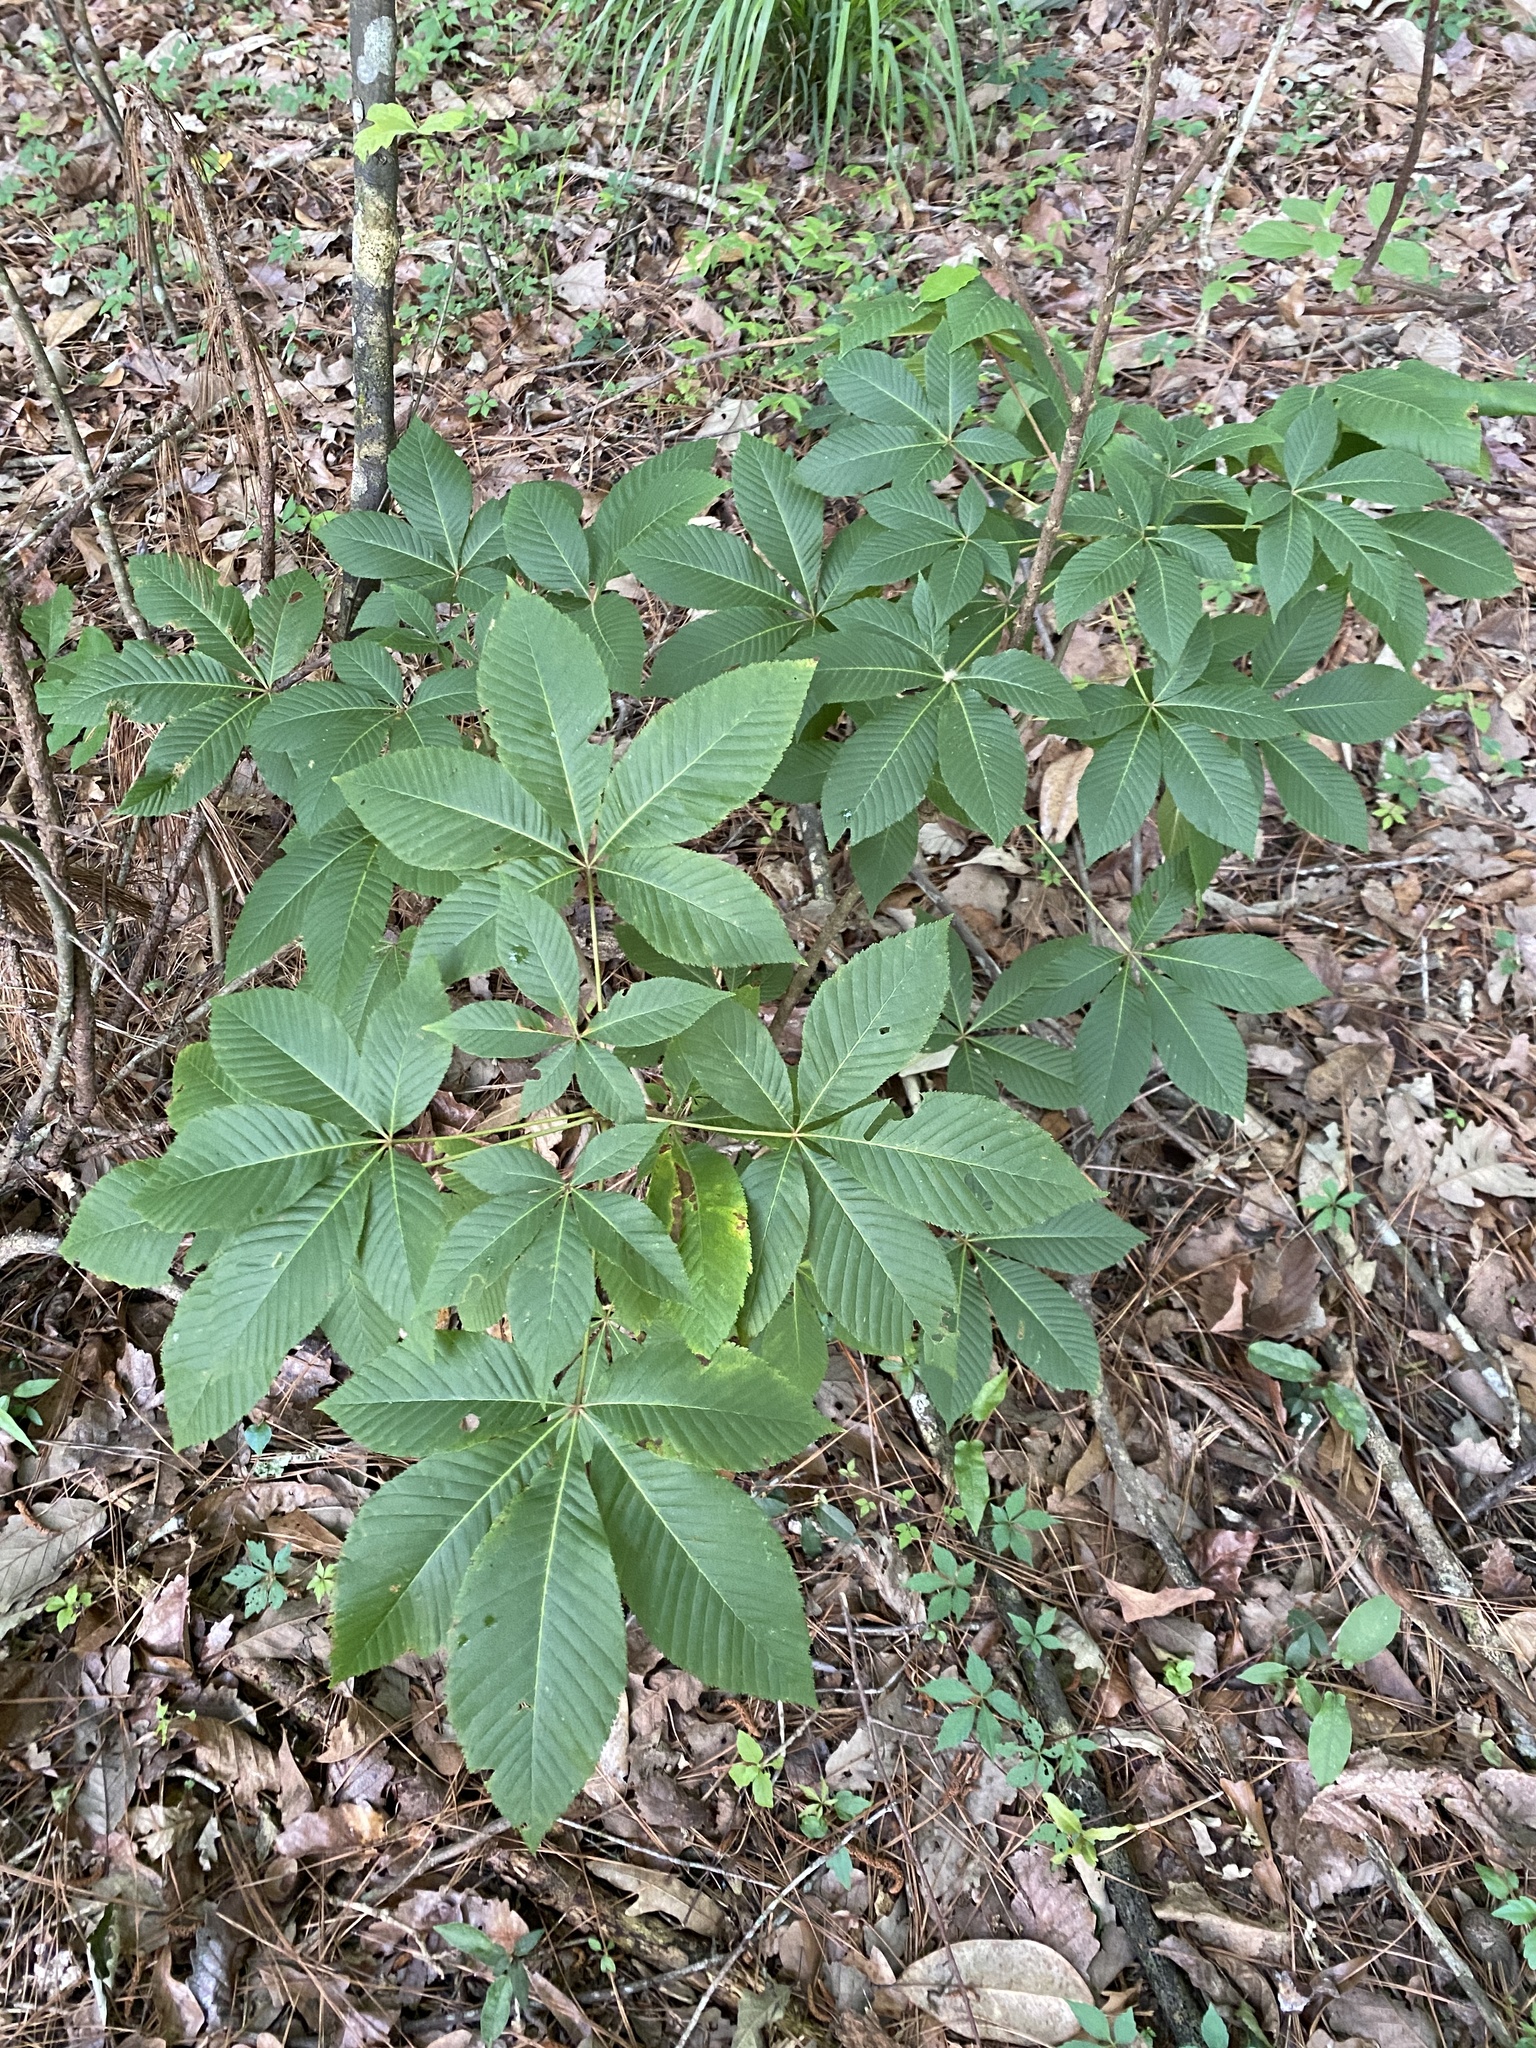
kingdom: Plantae
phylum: Tracheophyta
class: Magnoliopsida
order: Sapindales
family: Sapindaceae
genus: Aesculus
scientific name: Aesculus pavia
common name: Red buckeye
